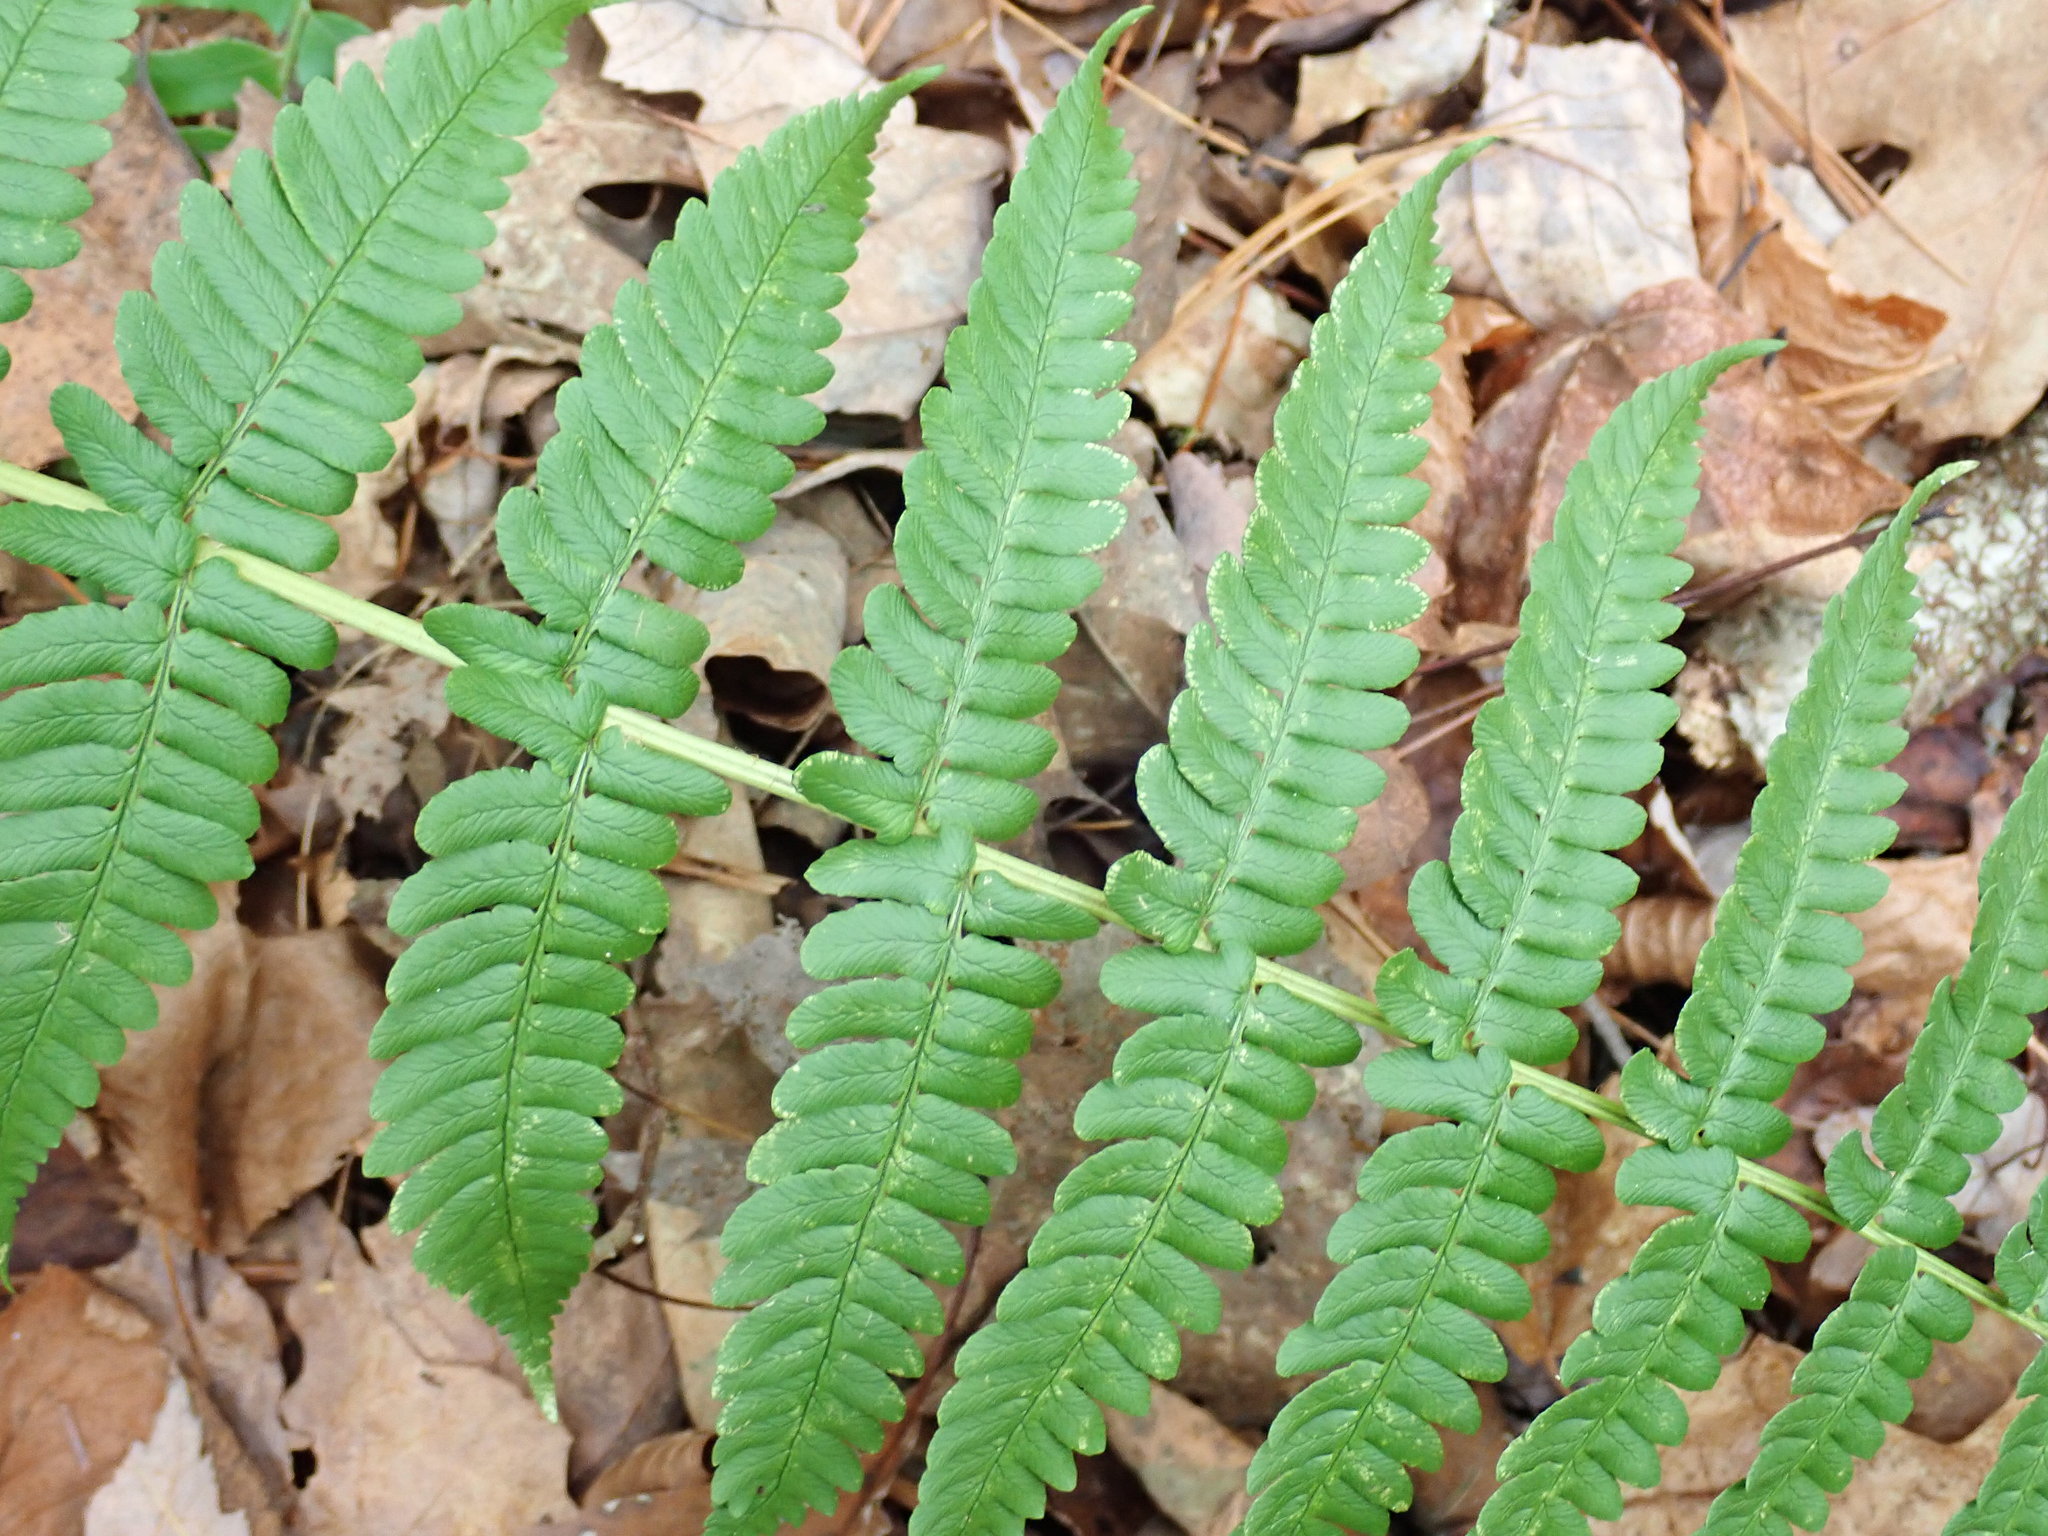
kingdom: Plantae
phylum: Tracheophyta
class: Polypodiopsida
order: Polypodiales
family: Dryopteridaceae
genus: Dryopteris
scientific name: Dryopteris marginalis
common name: Marginal wood fern
